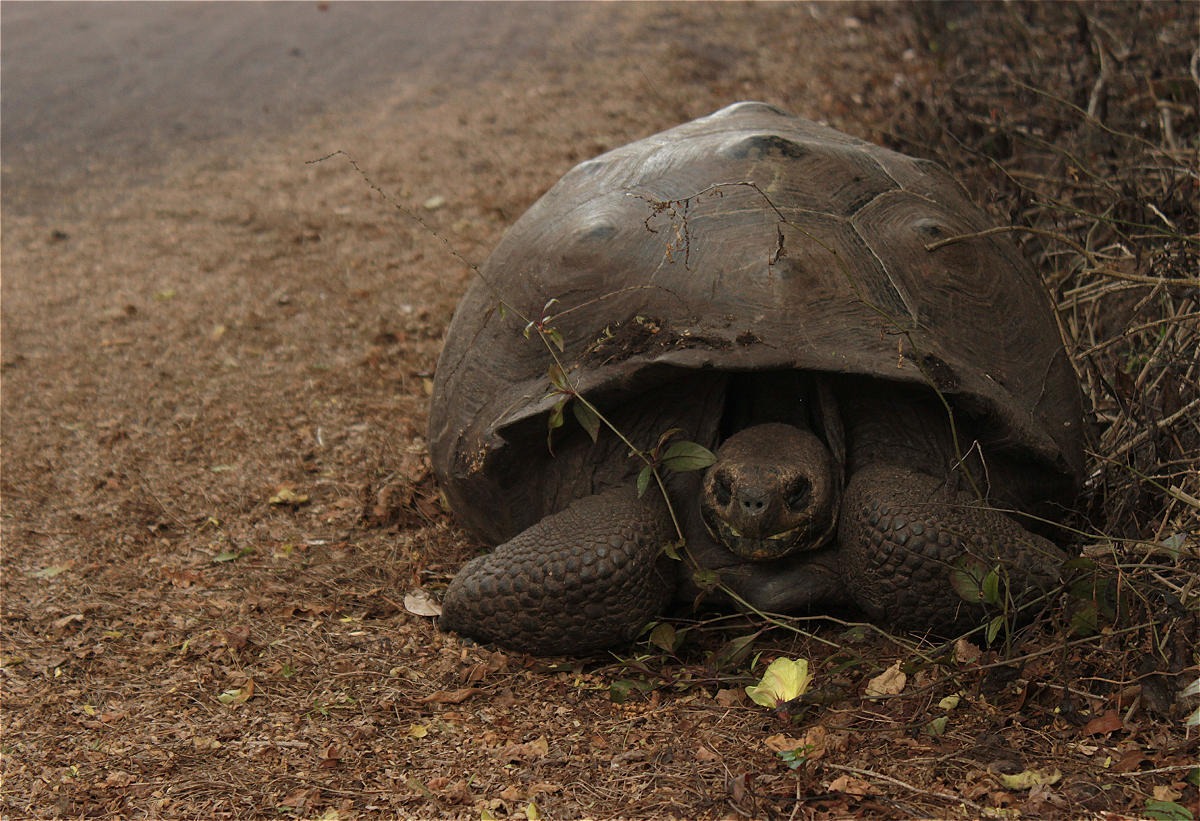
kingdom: Animalia
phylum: Chordata
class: Testudines
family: Testudinidae
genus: Chelonoidis
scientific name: Chelonoidis guntheri
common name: Sierra negra giant tortoise
